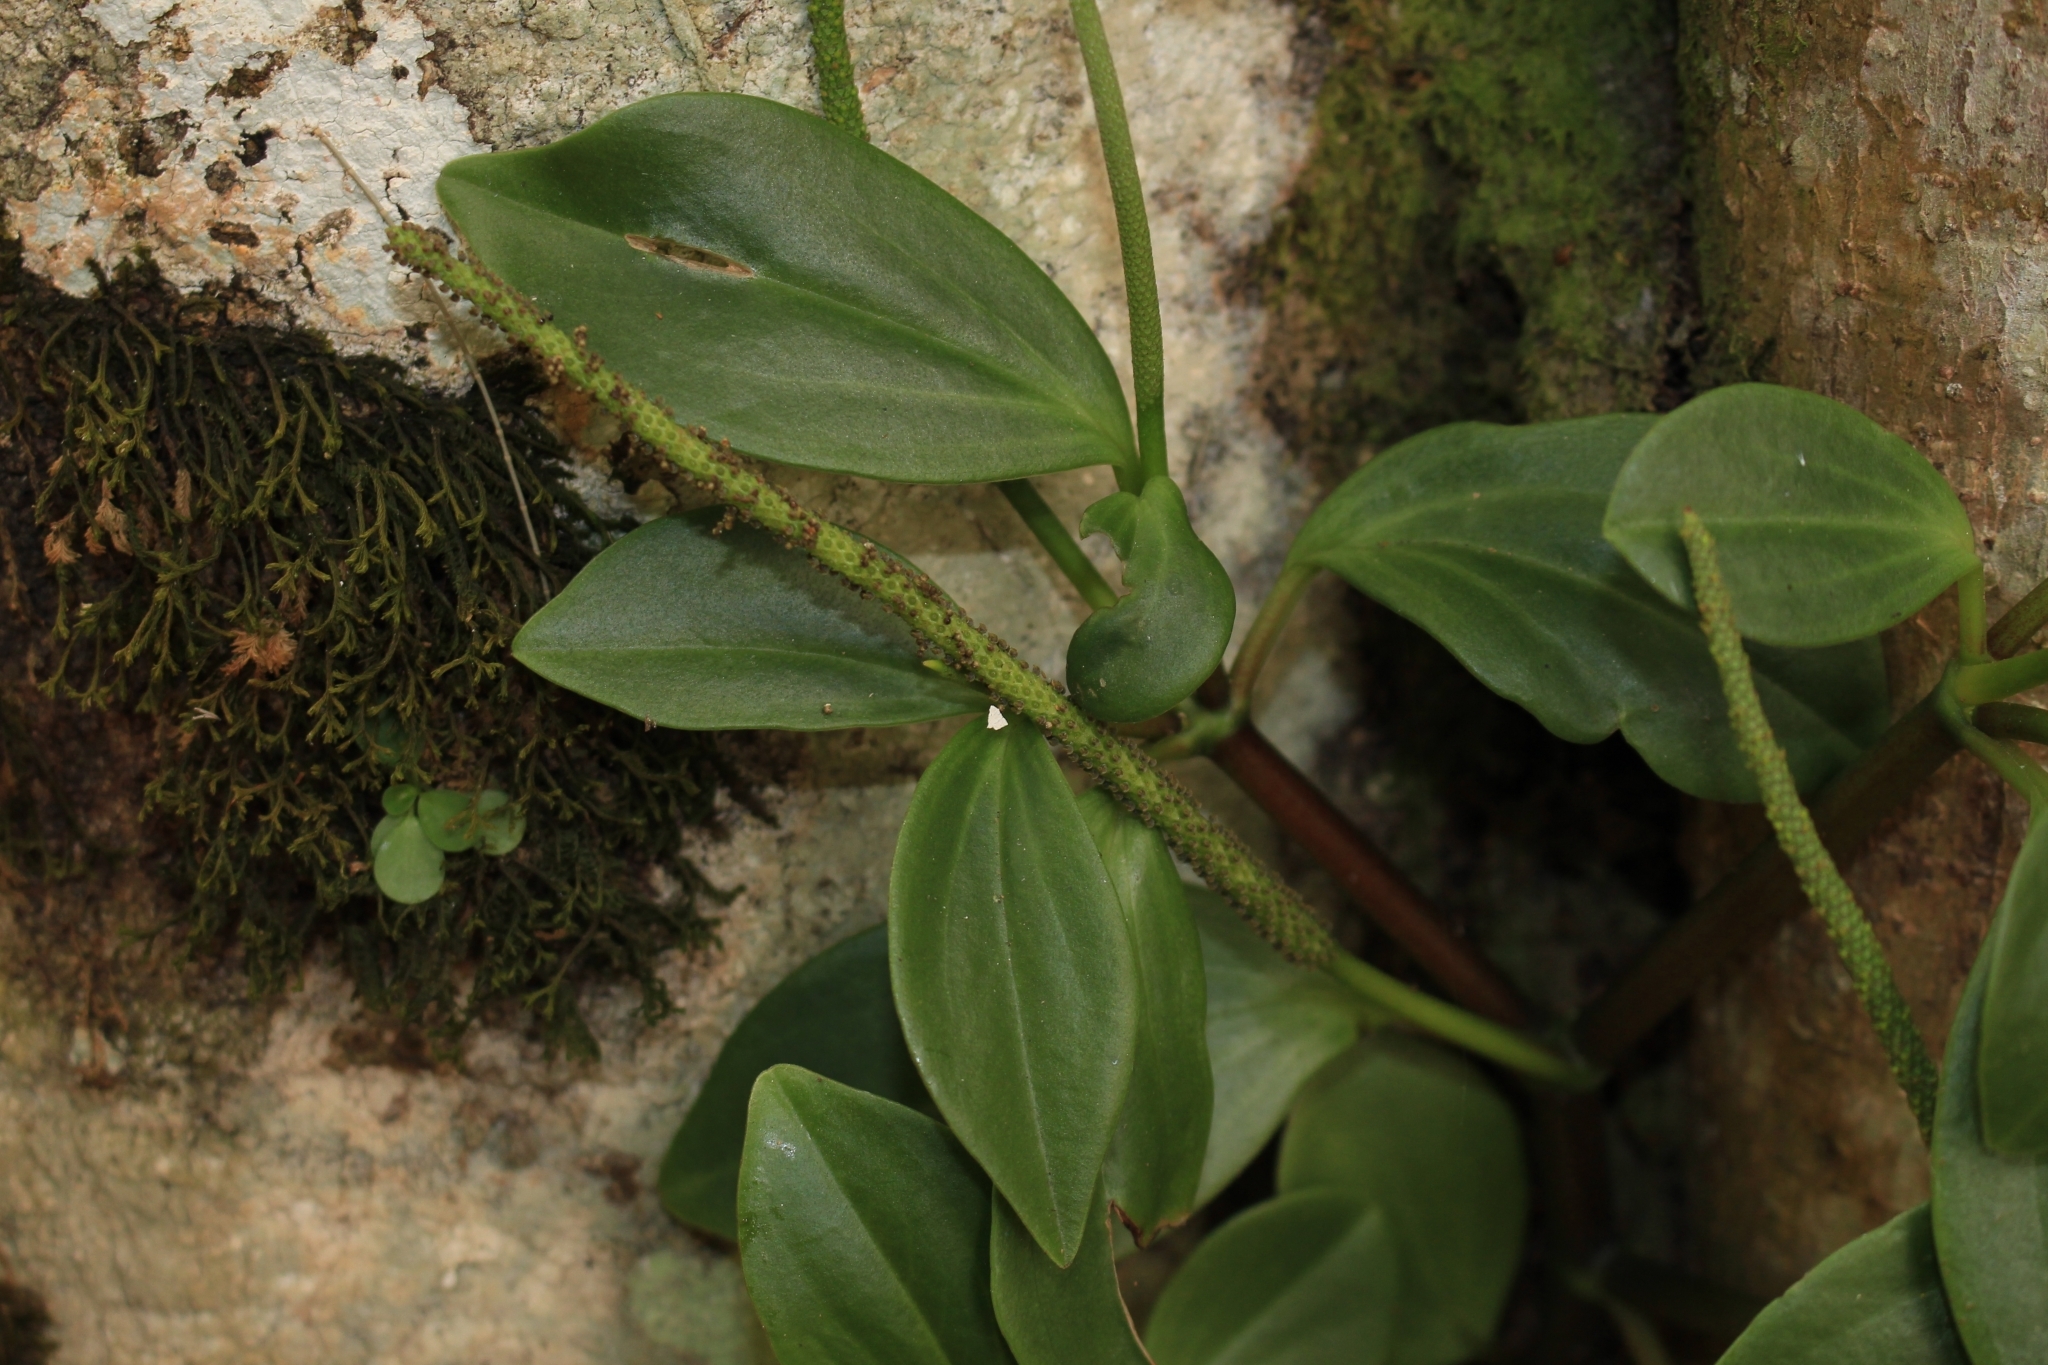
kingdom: Plantae
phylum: Tracheophyta
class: Magnoliopsida
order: Piperales
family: Piperaceae
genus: Peperomia
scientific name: Peperomia san-joseana
